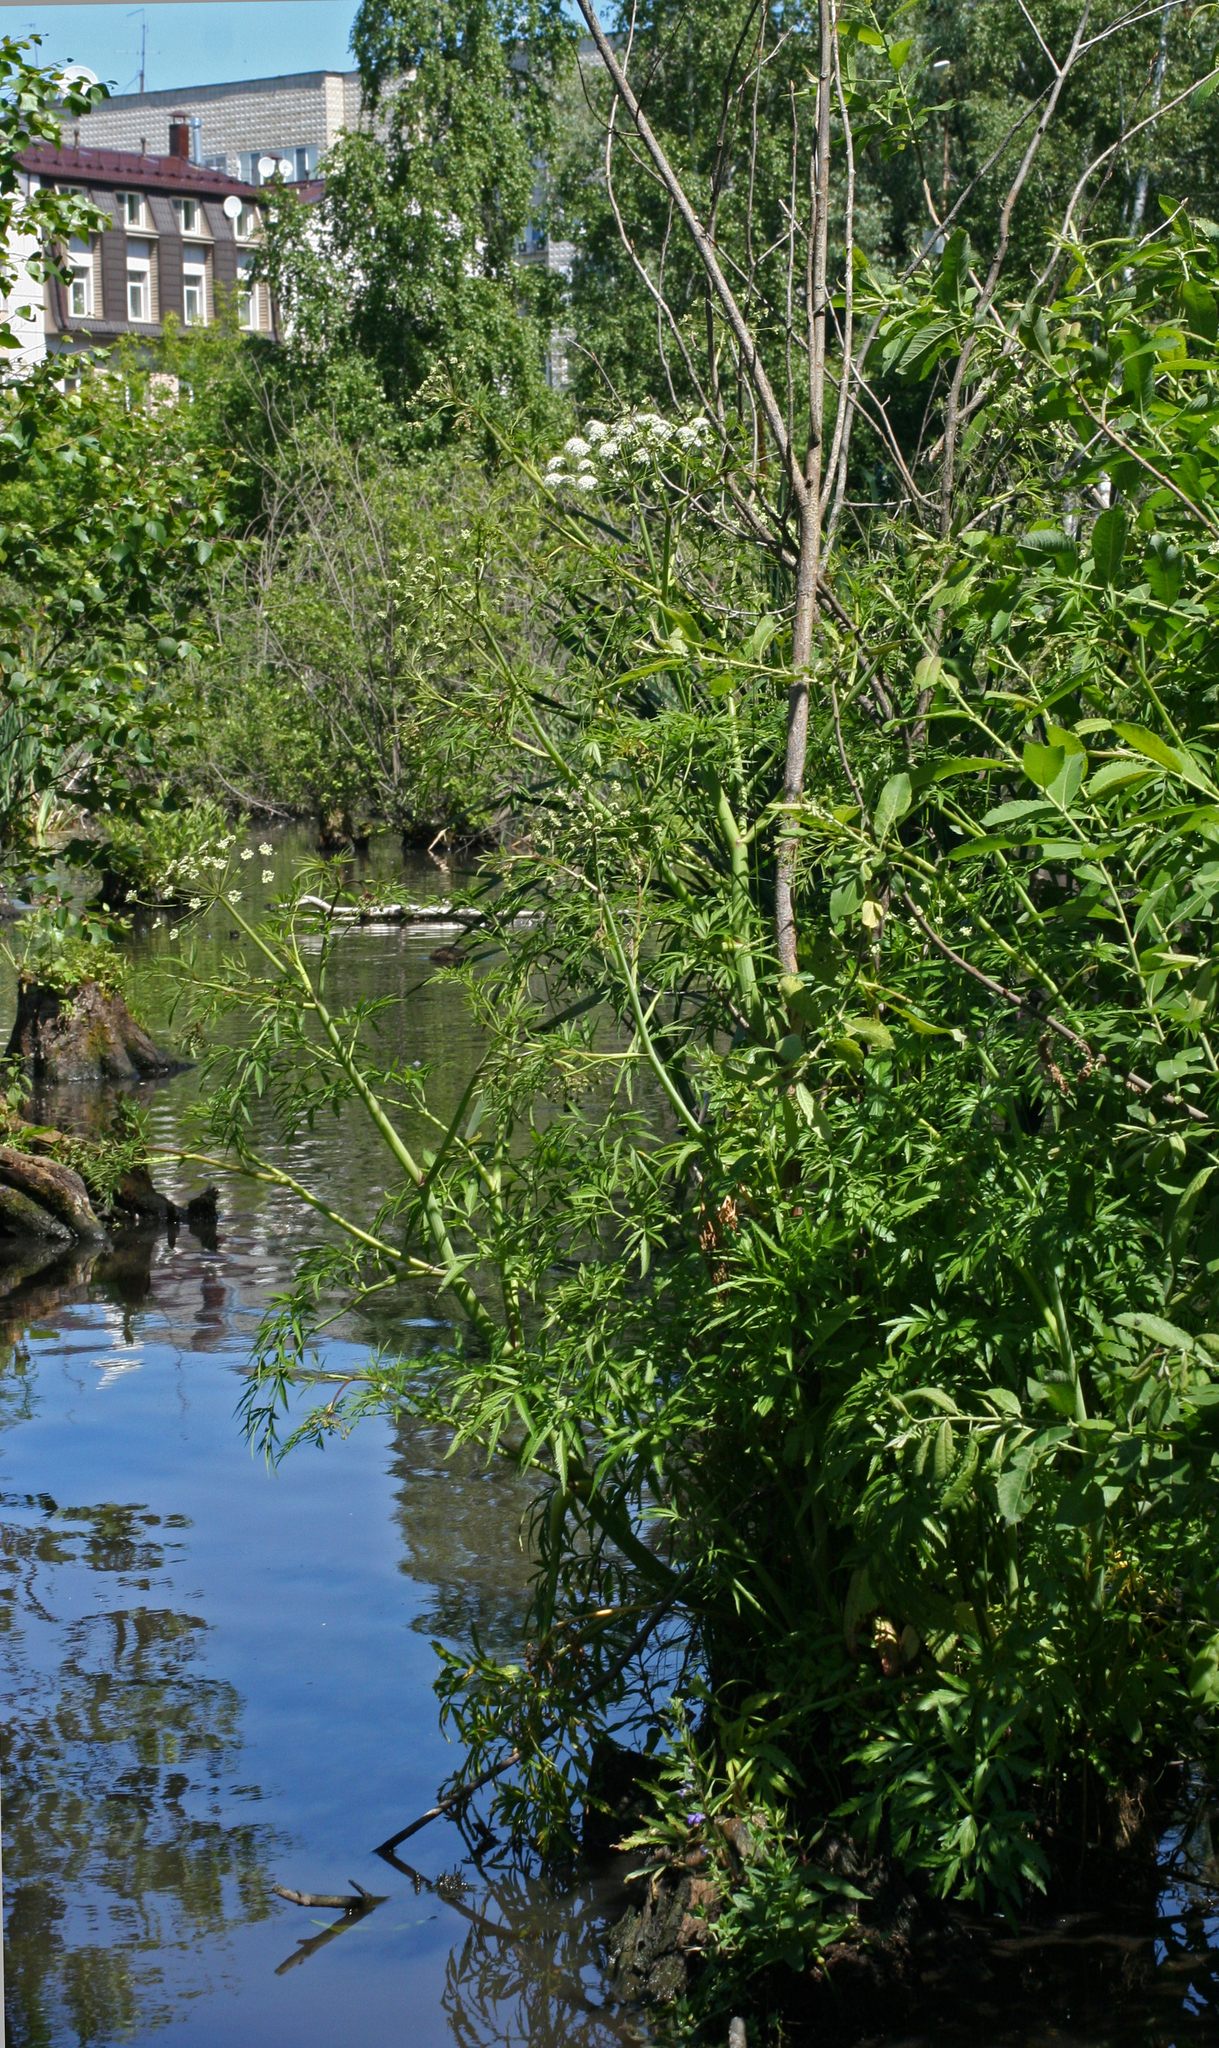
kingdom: Plantae
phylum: Tracheophyta
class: Magnoliopsida
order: Apiales
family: Apiaceae
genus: Cicuta
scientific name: Cicuta virosa
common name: Cowbane
